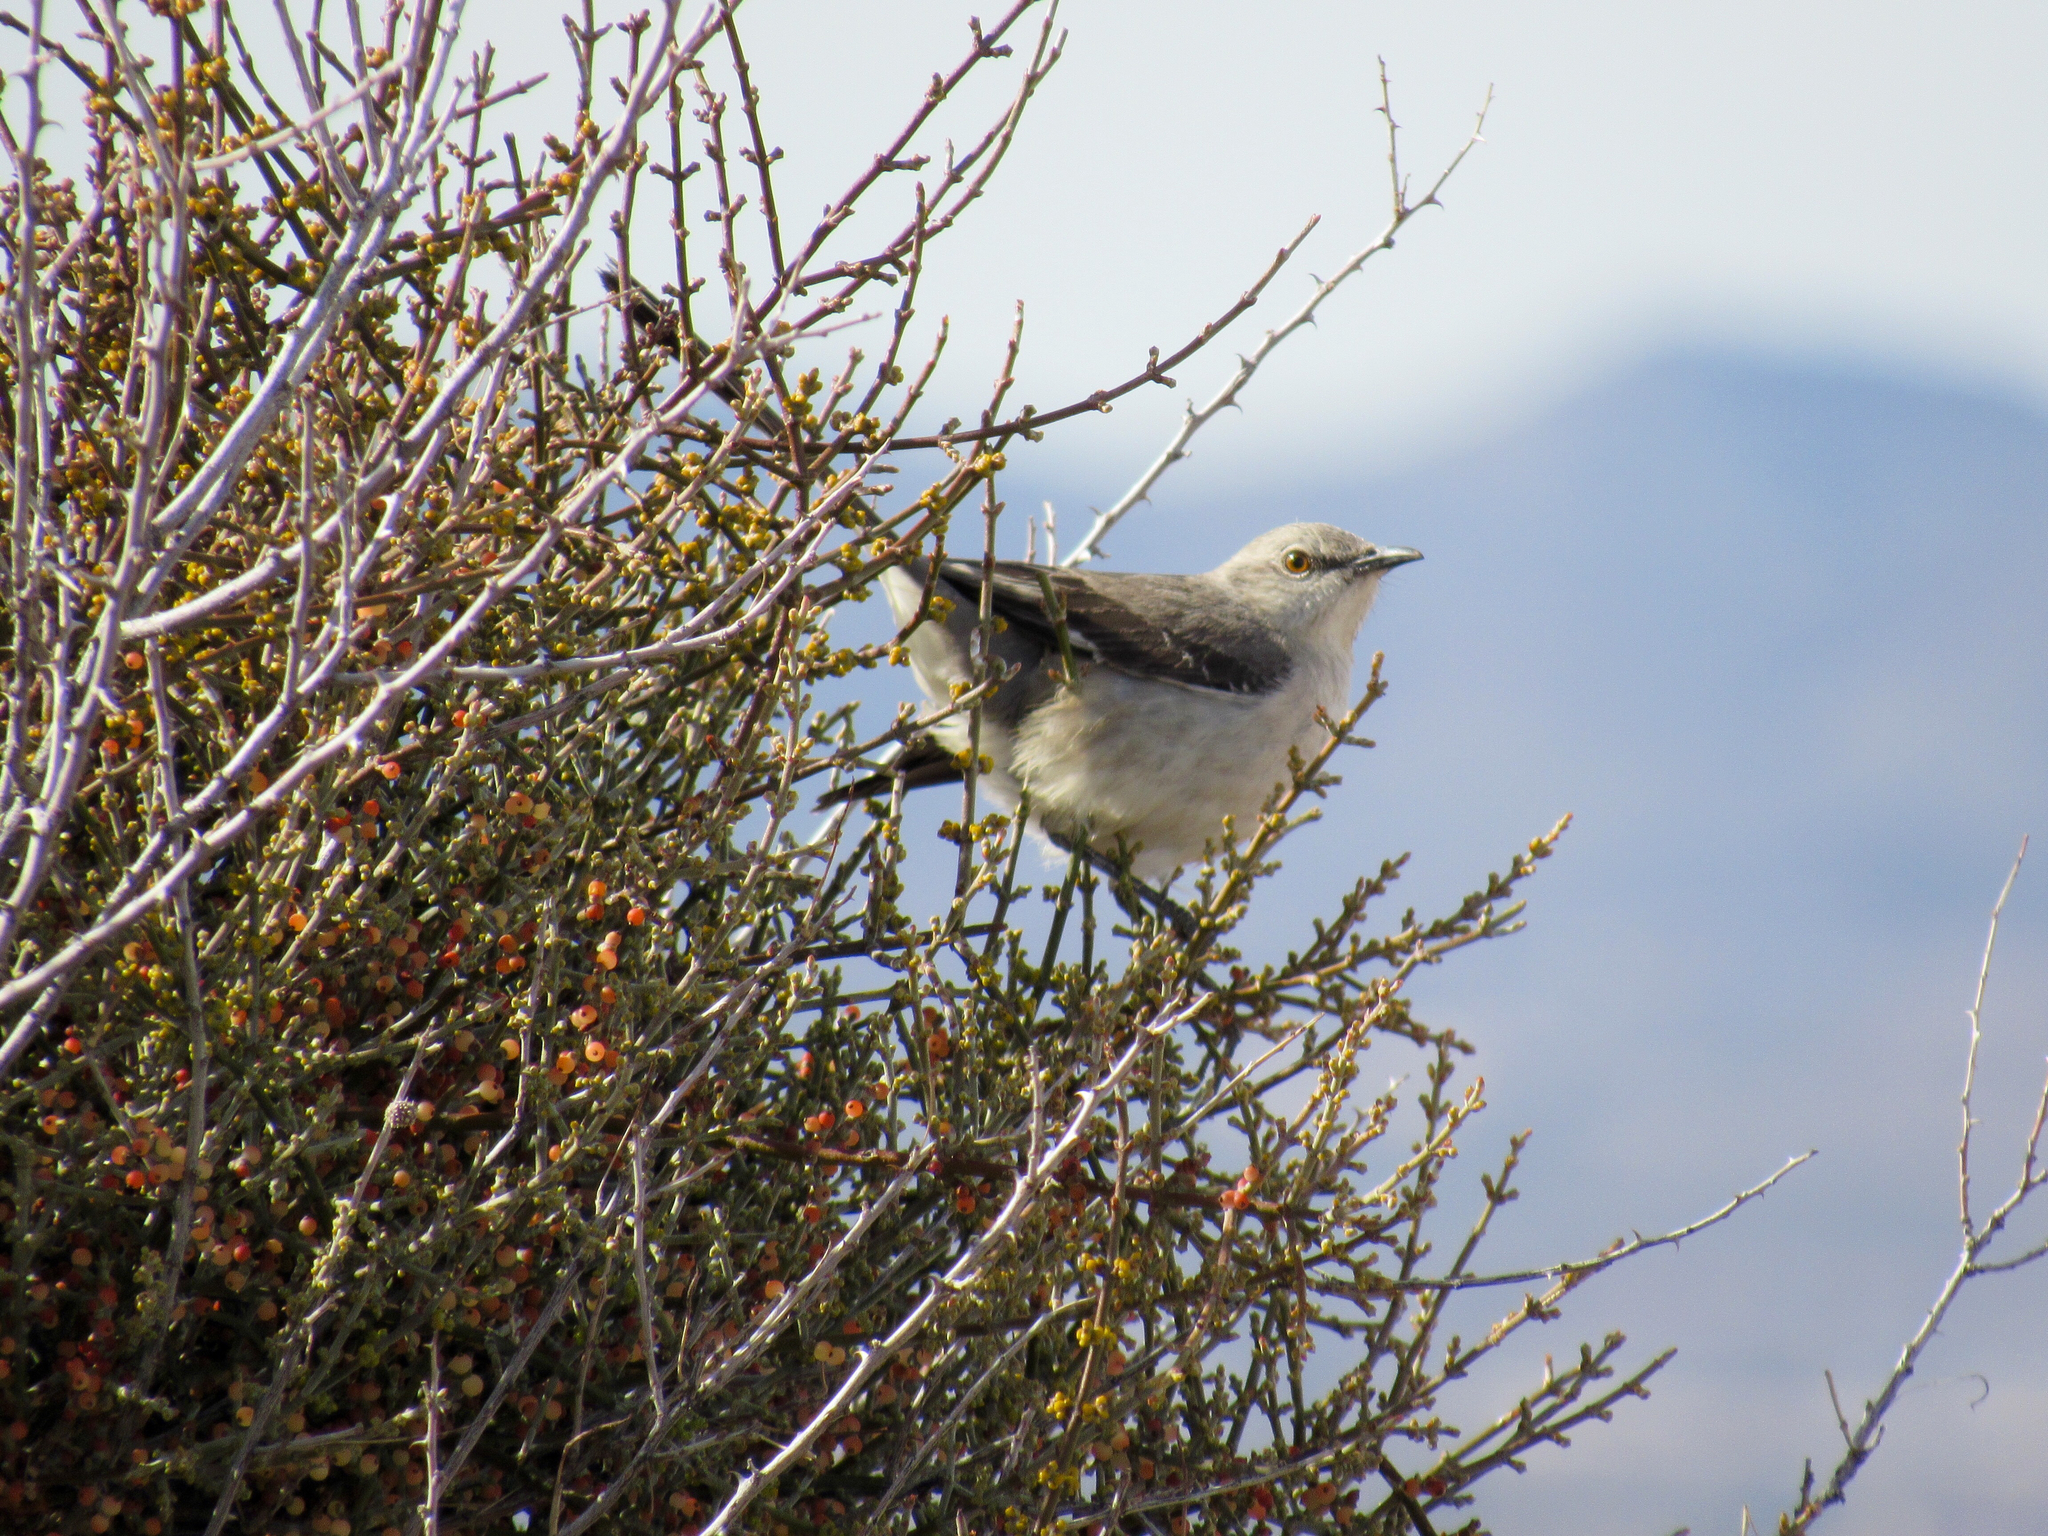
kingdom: Animalia
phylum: Chordata
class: Aves
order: Passeriformes
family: Mimidae
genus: Mimus
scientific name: Mimus polyglottos
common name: Northern mockingbird
